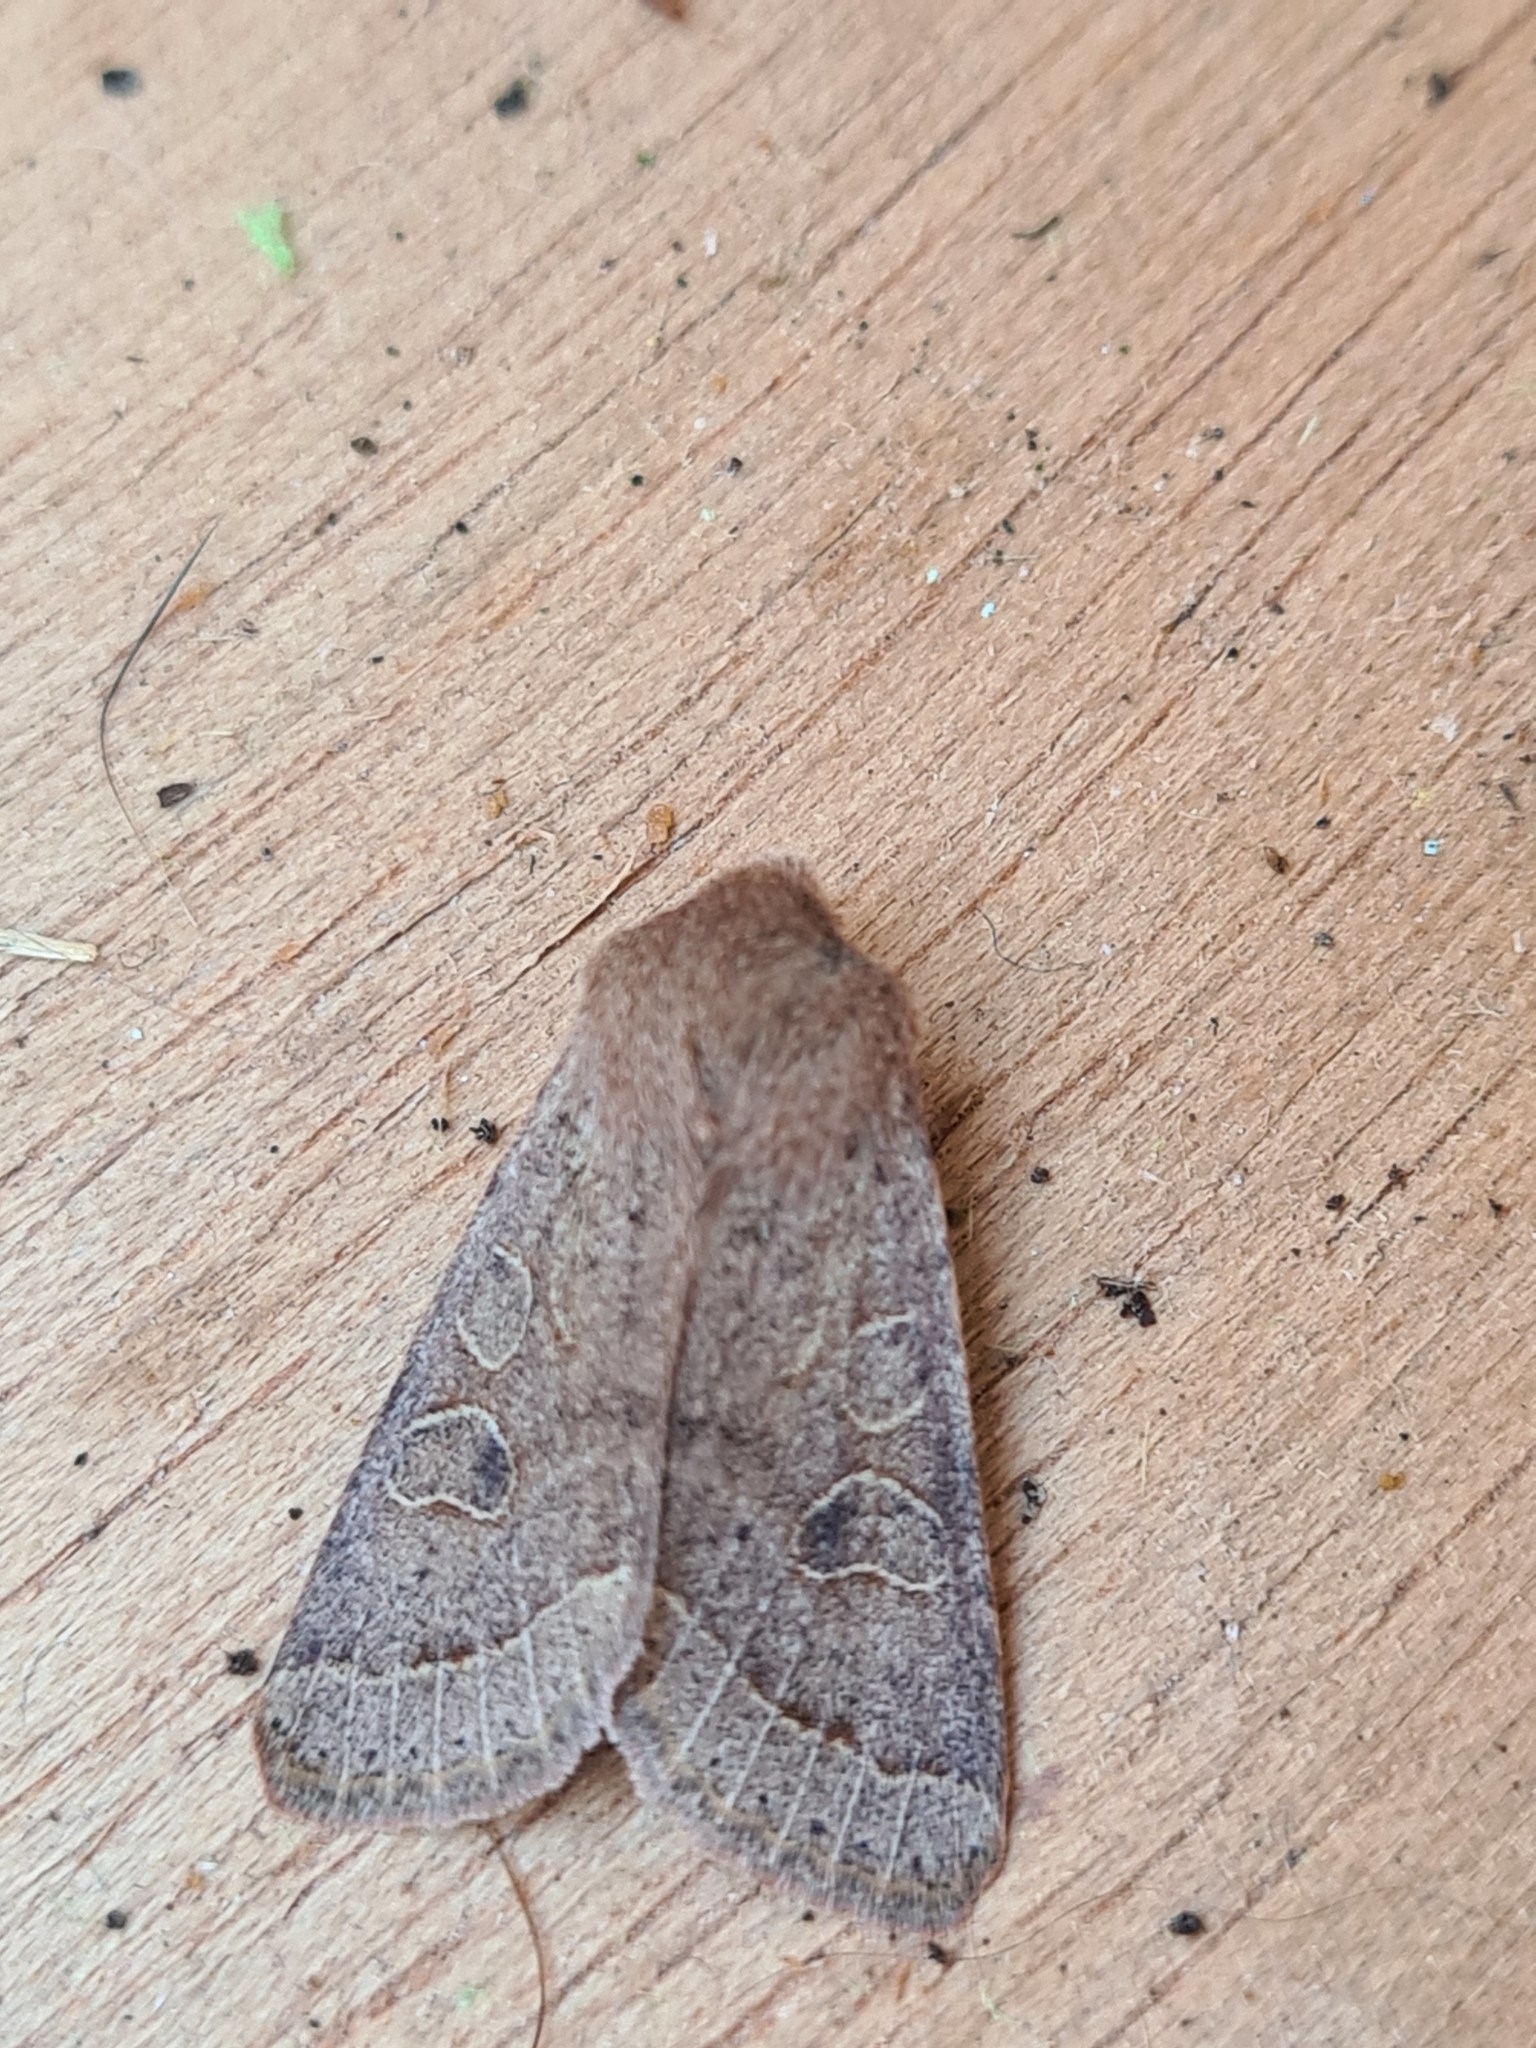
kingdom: Animalia
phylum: Arthropoda
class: Insecta
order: Lepidoptera
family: Noctuidae
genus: Orthosia
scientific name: Orthosia cerasi
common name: Common quaker
